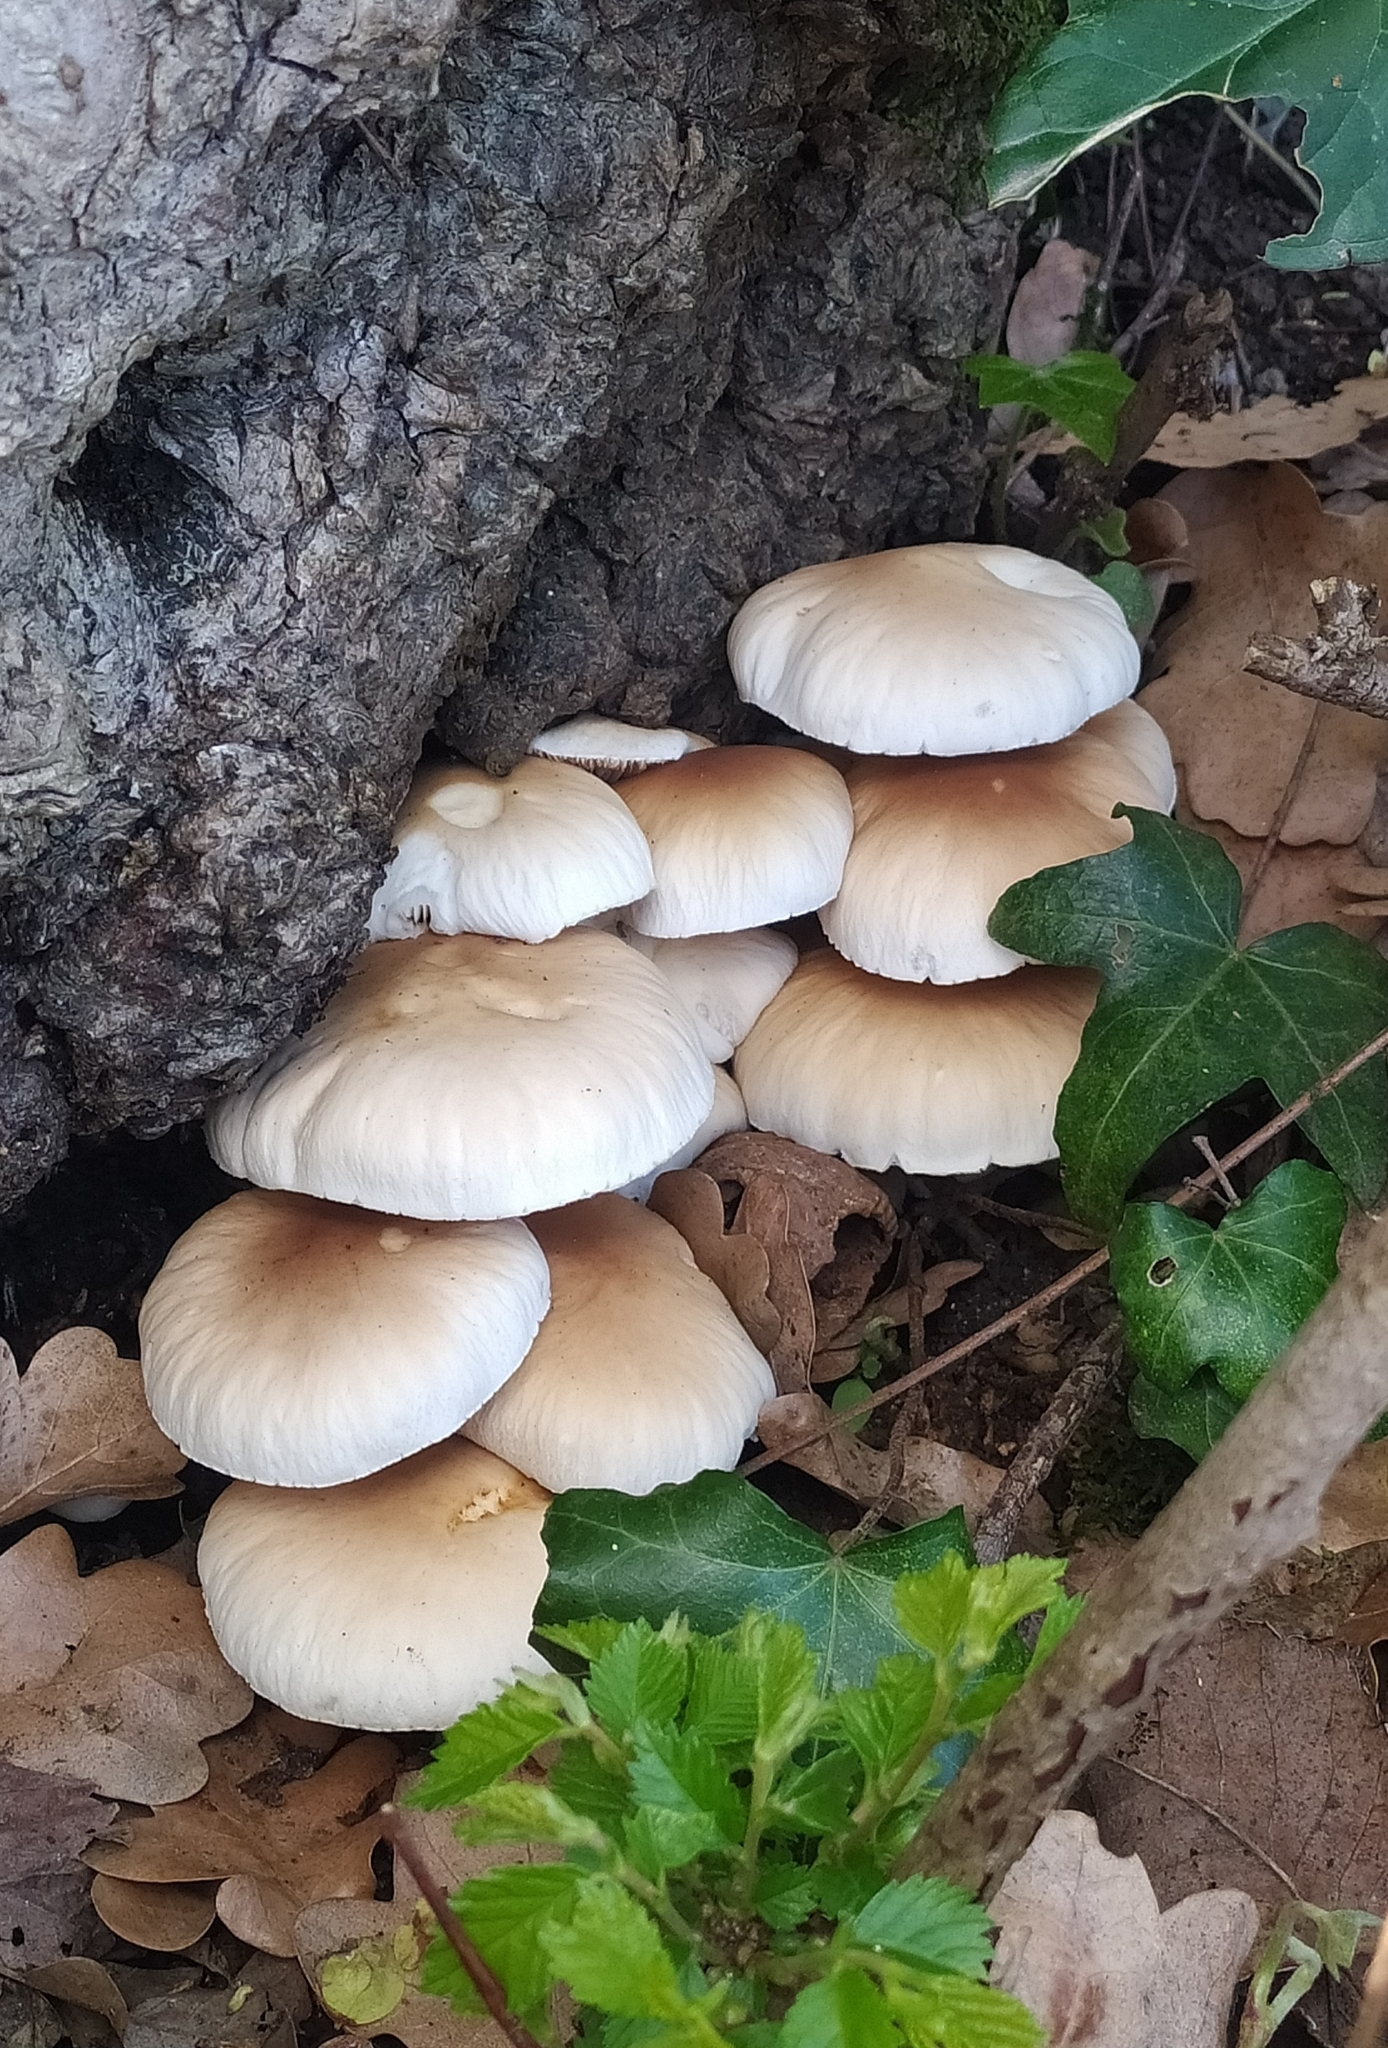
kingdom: Fungi
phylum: Basidiomycota
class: Agaricomycetes
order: Agaricales
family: Tubariaceae
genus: Cyclocybe
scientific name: Cyclocybe cylindracea
